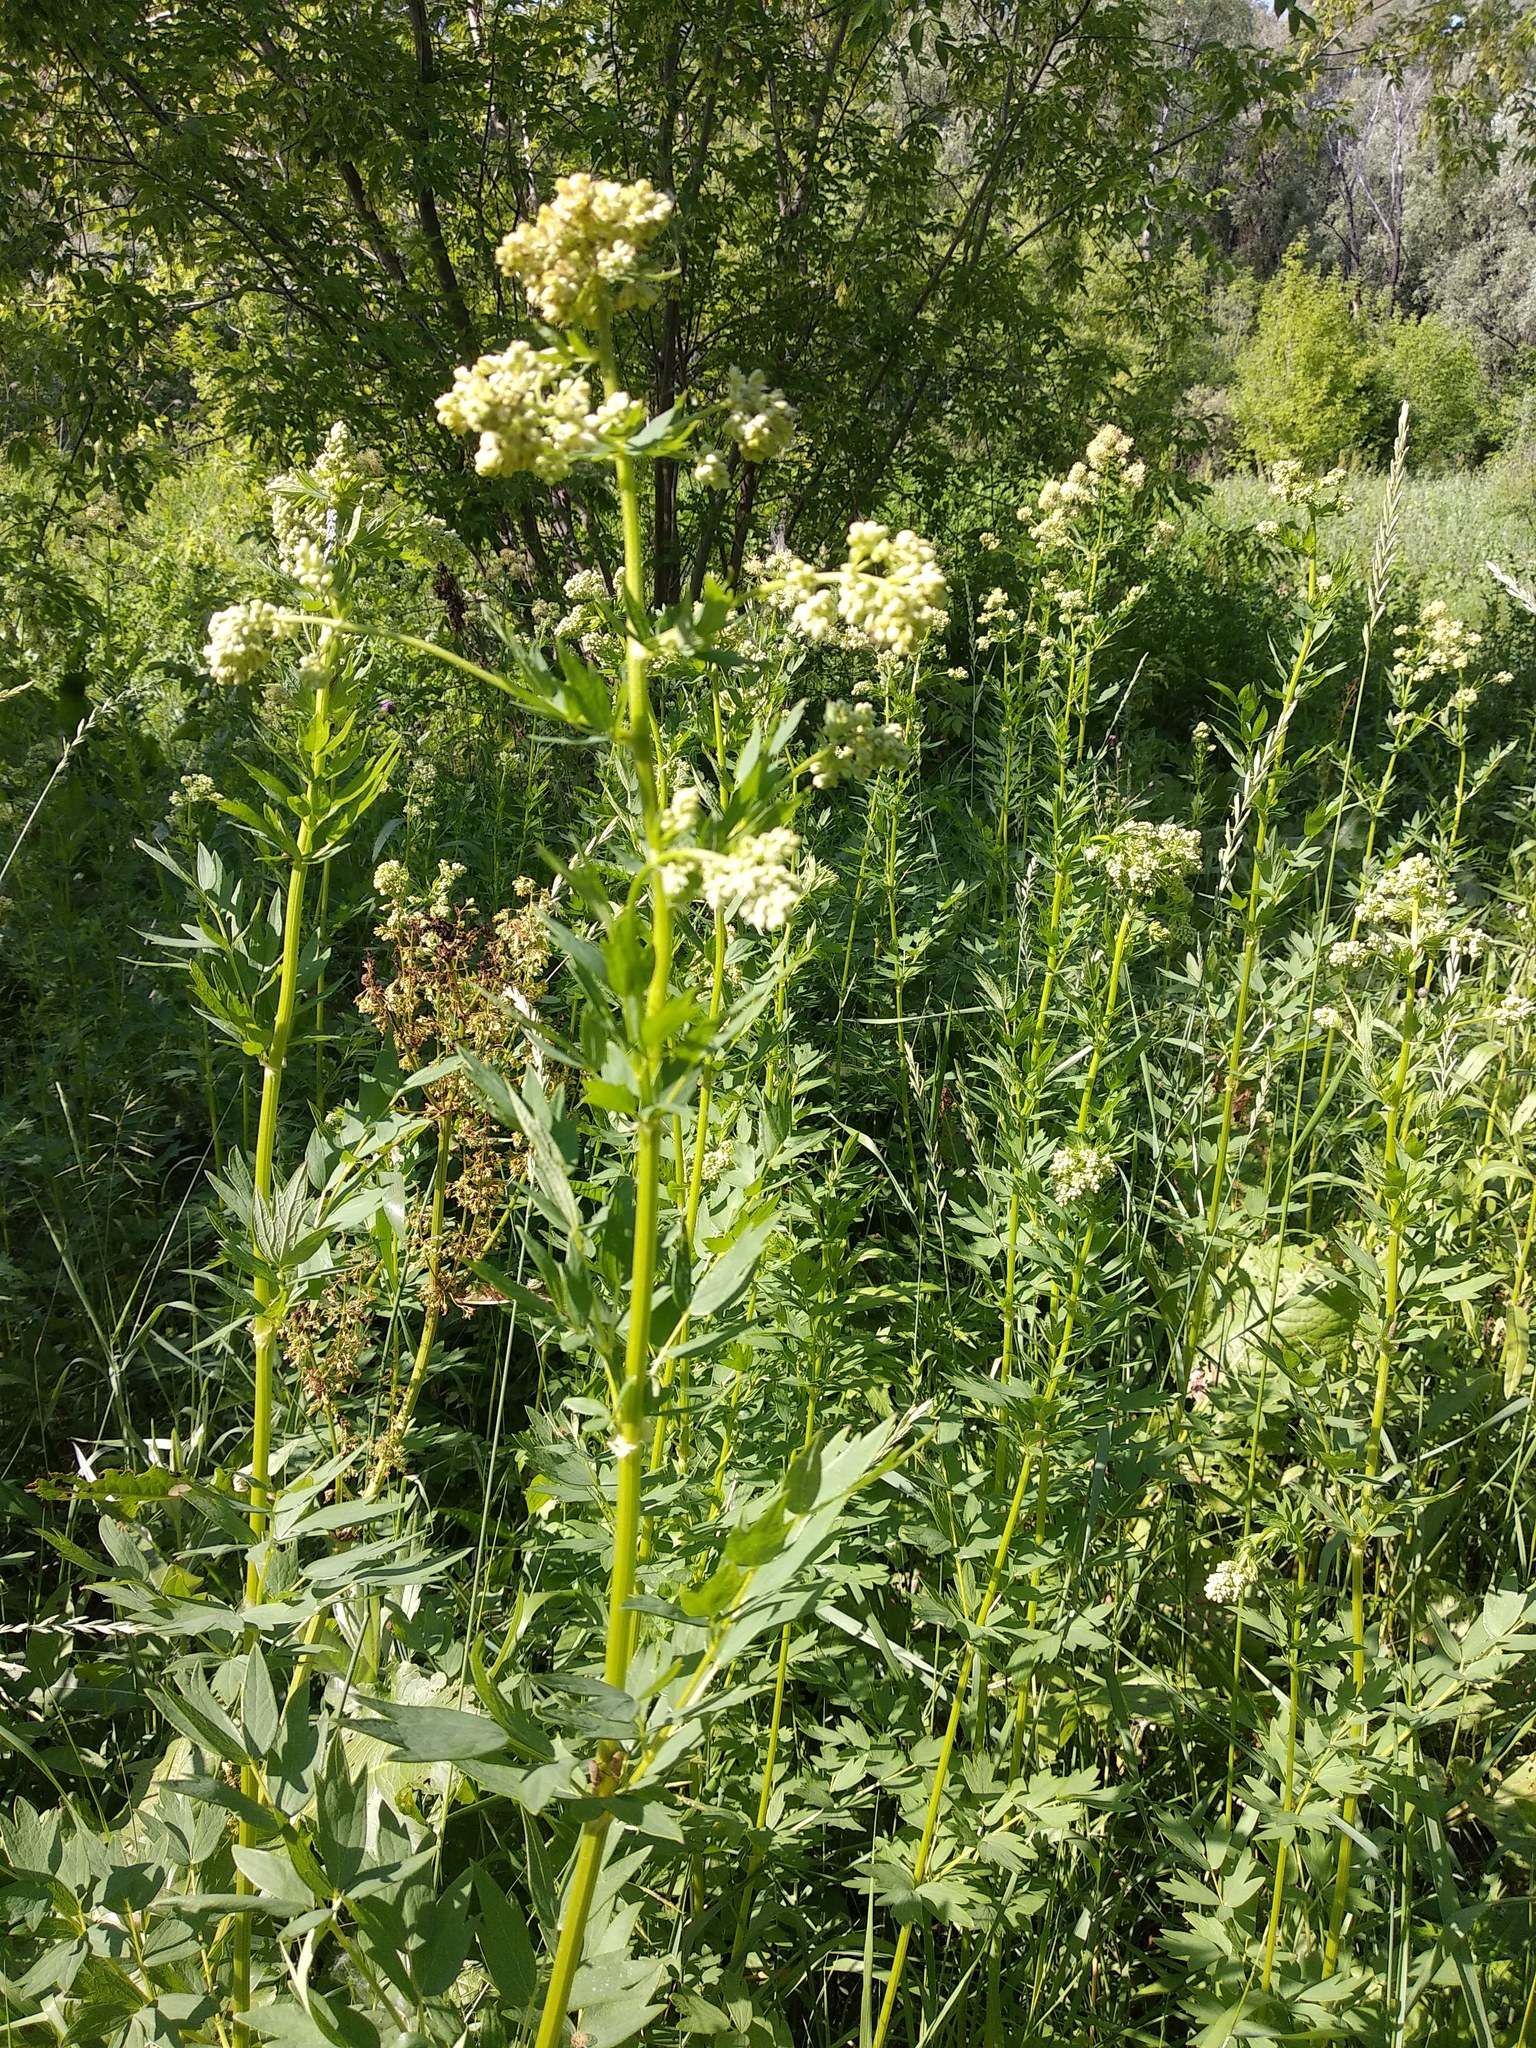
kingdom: Plantae
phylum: Tracheophyta
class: Magnoliopsida
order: Ranunculales
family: Ranunculaceae
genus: Thalictrum
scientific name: Thalictrum flavum
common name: Common meadow-rue
